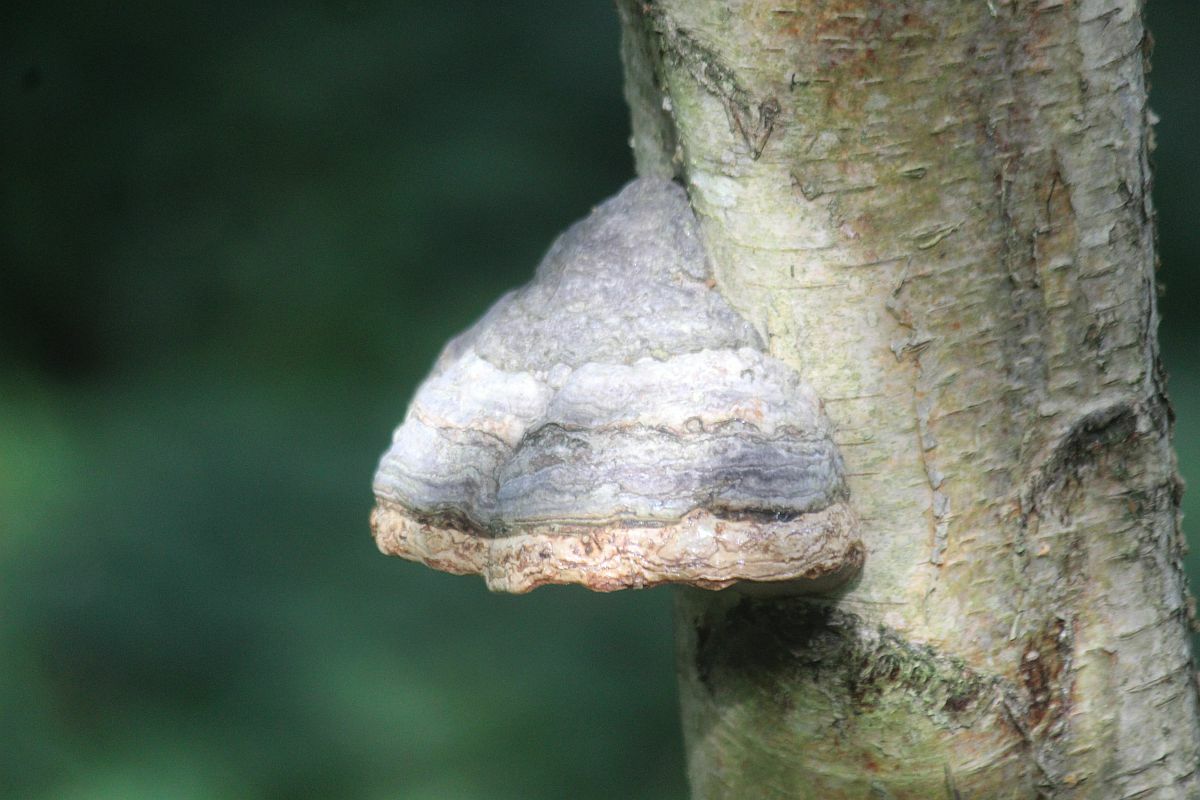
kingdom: Fungi
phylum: Basidiomycota
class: Agaricomycetes
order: Polyporales
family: Polyporaceae
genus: Fomes
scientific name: Fomes fomentarius
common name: Hoof fungus
